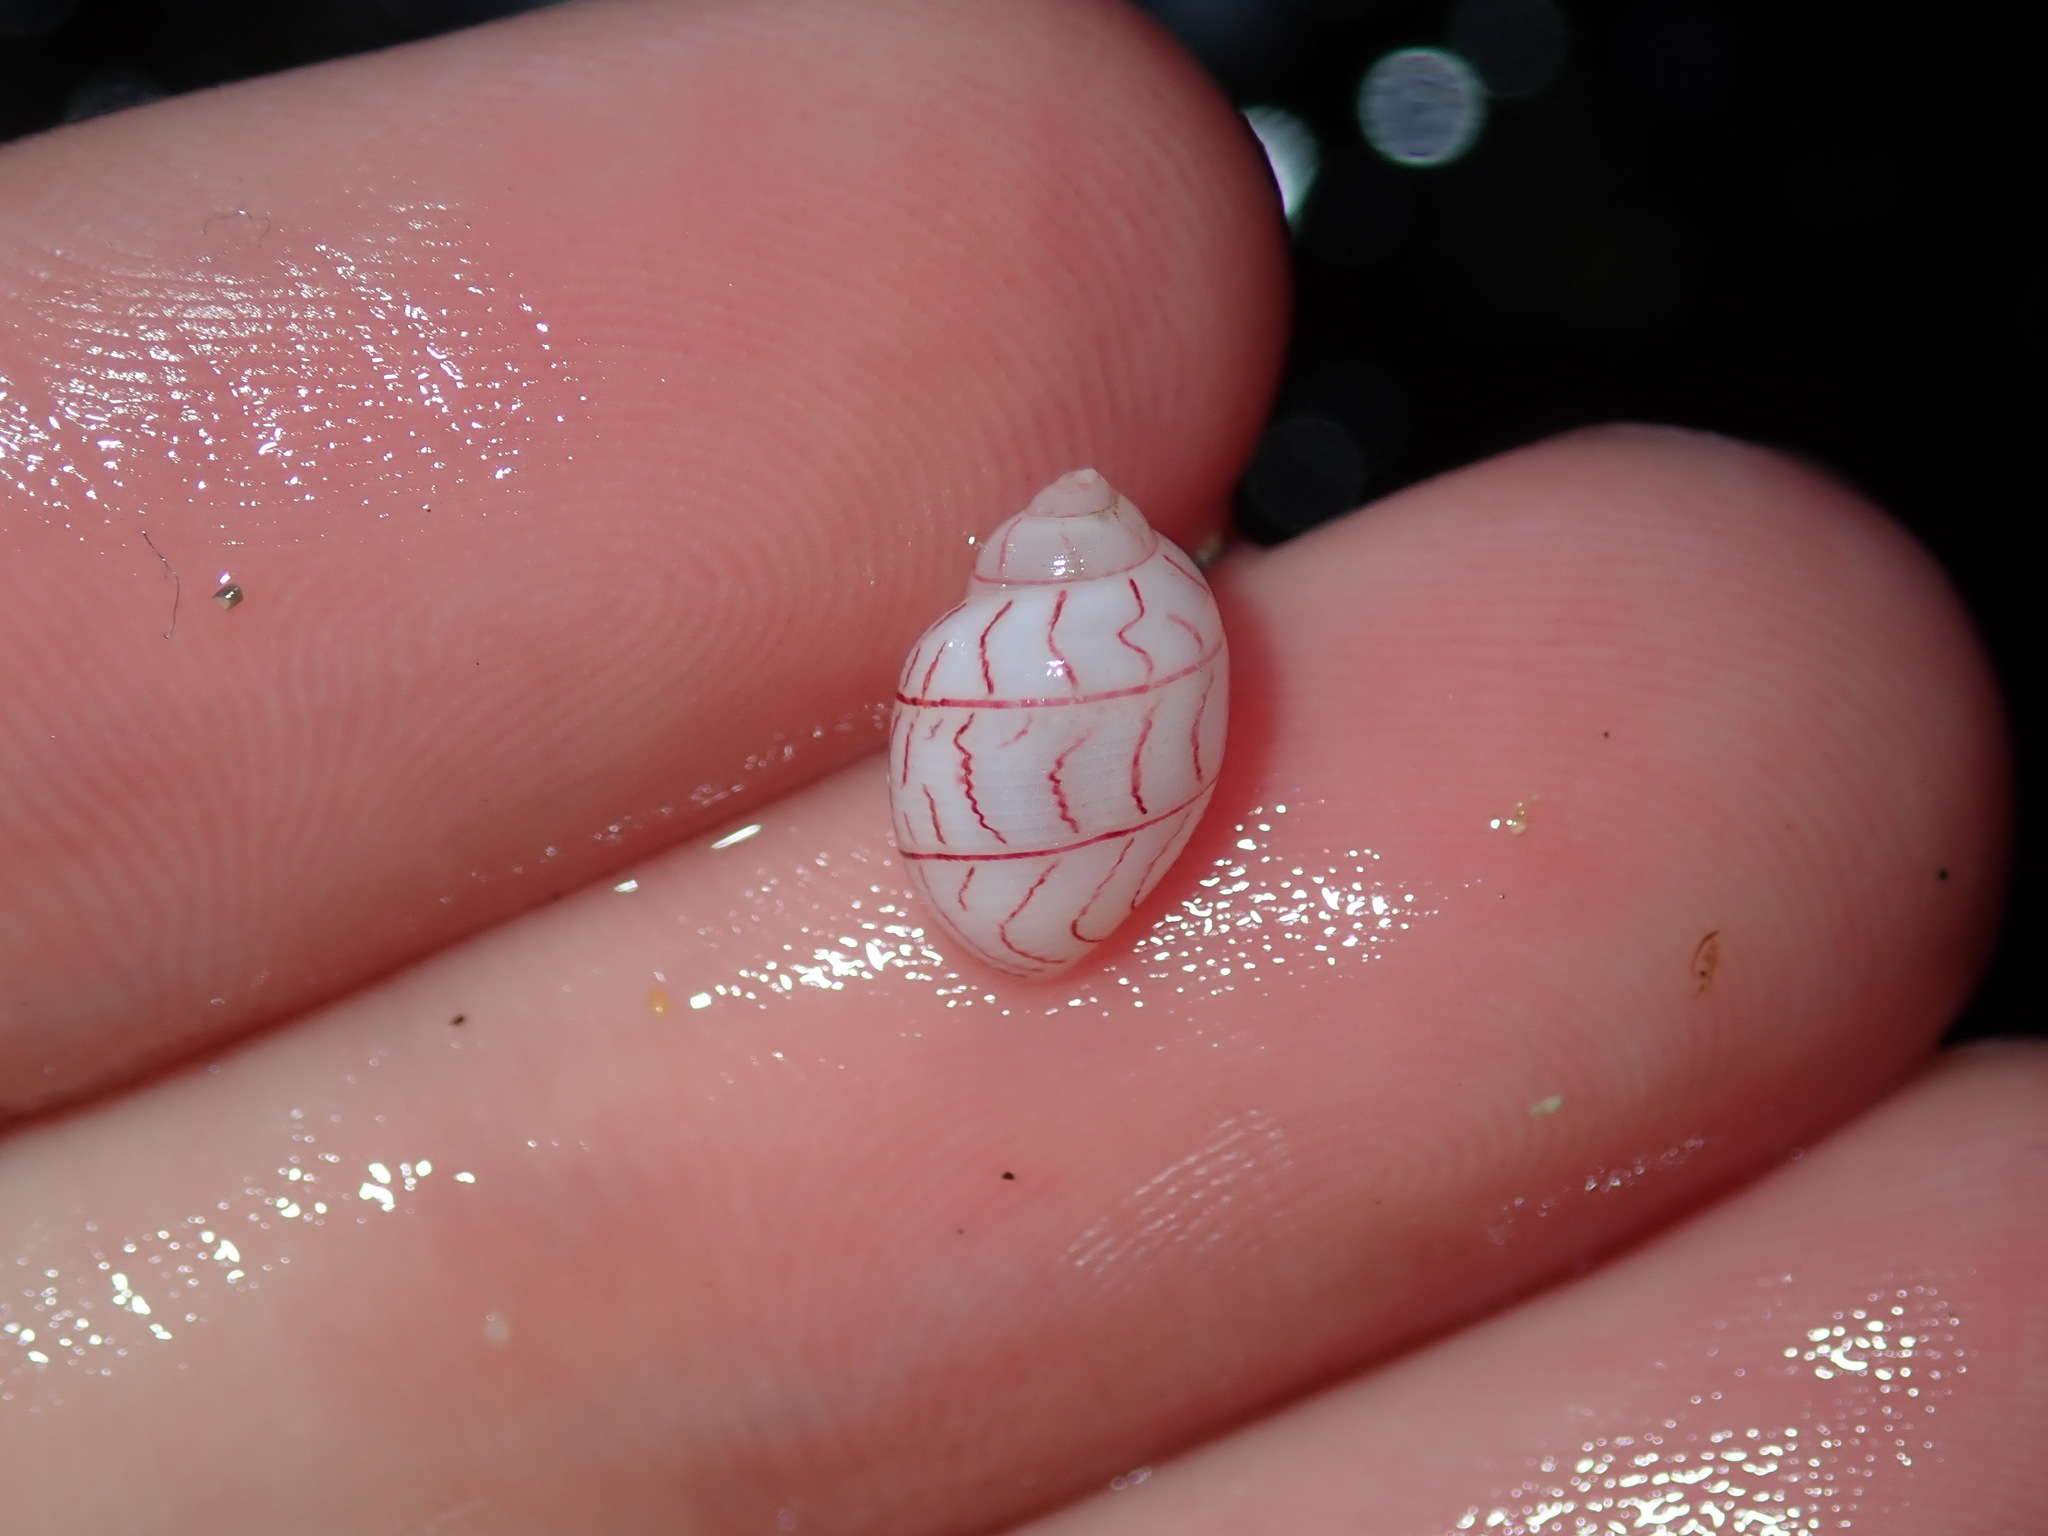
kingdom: Animalia
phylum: Mollusca
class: Gastropoda
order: Cephalaspidea
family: Aplustridae
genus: Bullina
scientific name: Bullina lineata
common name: Lined bubble snail
